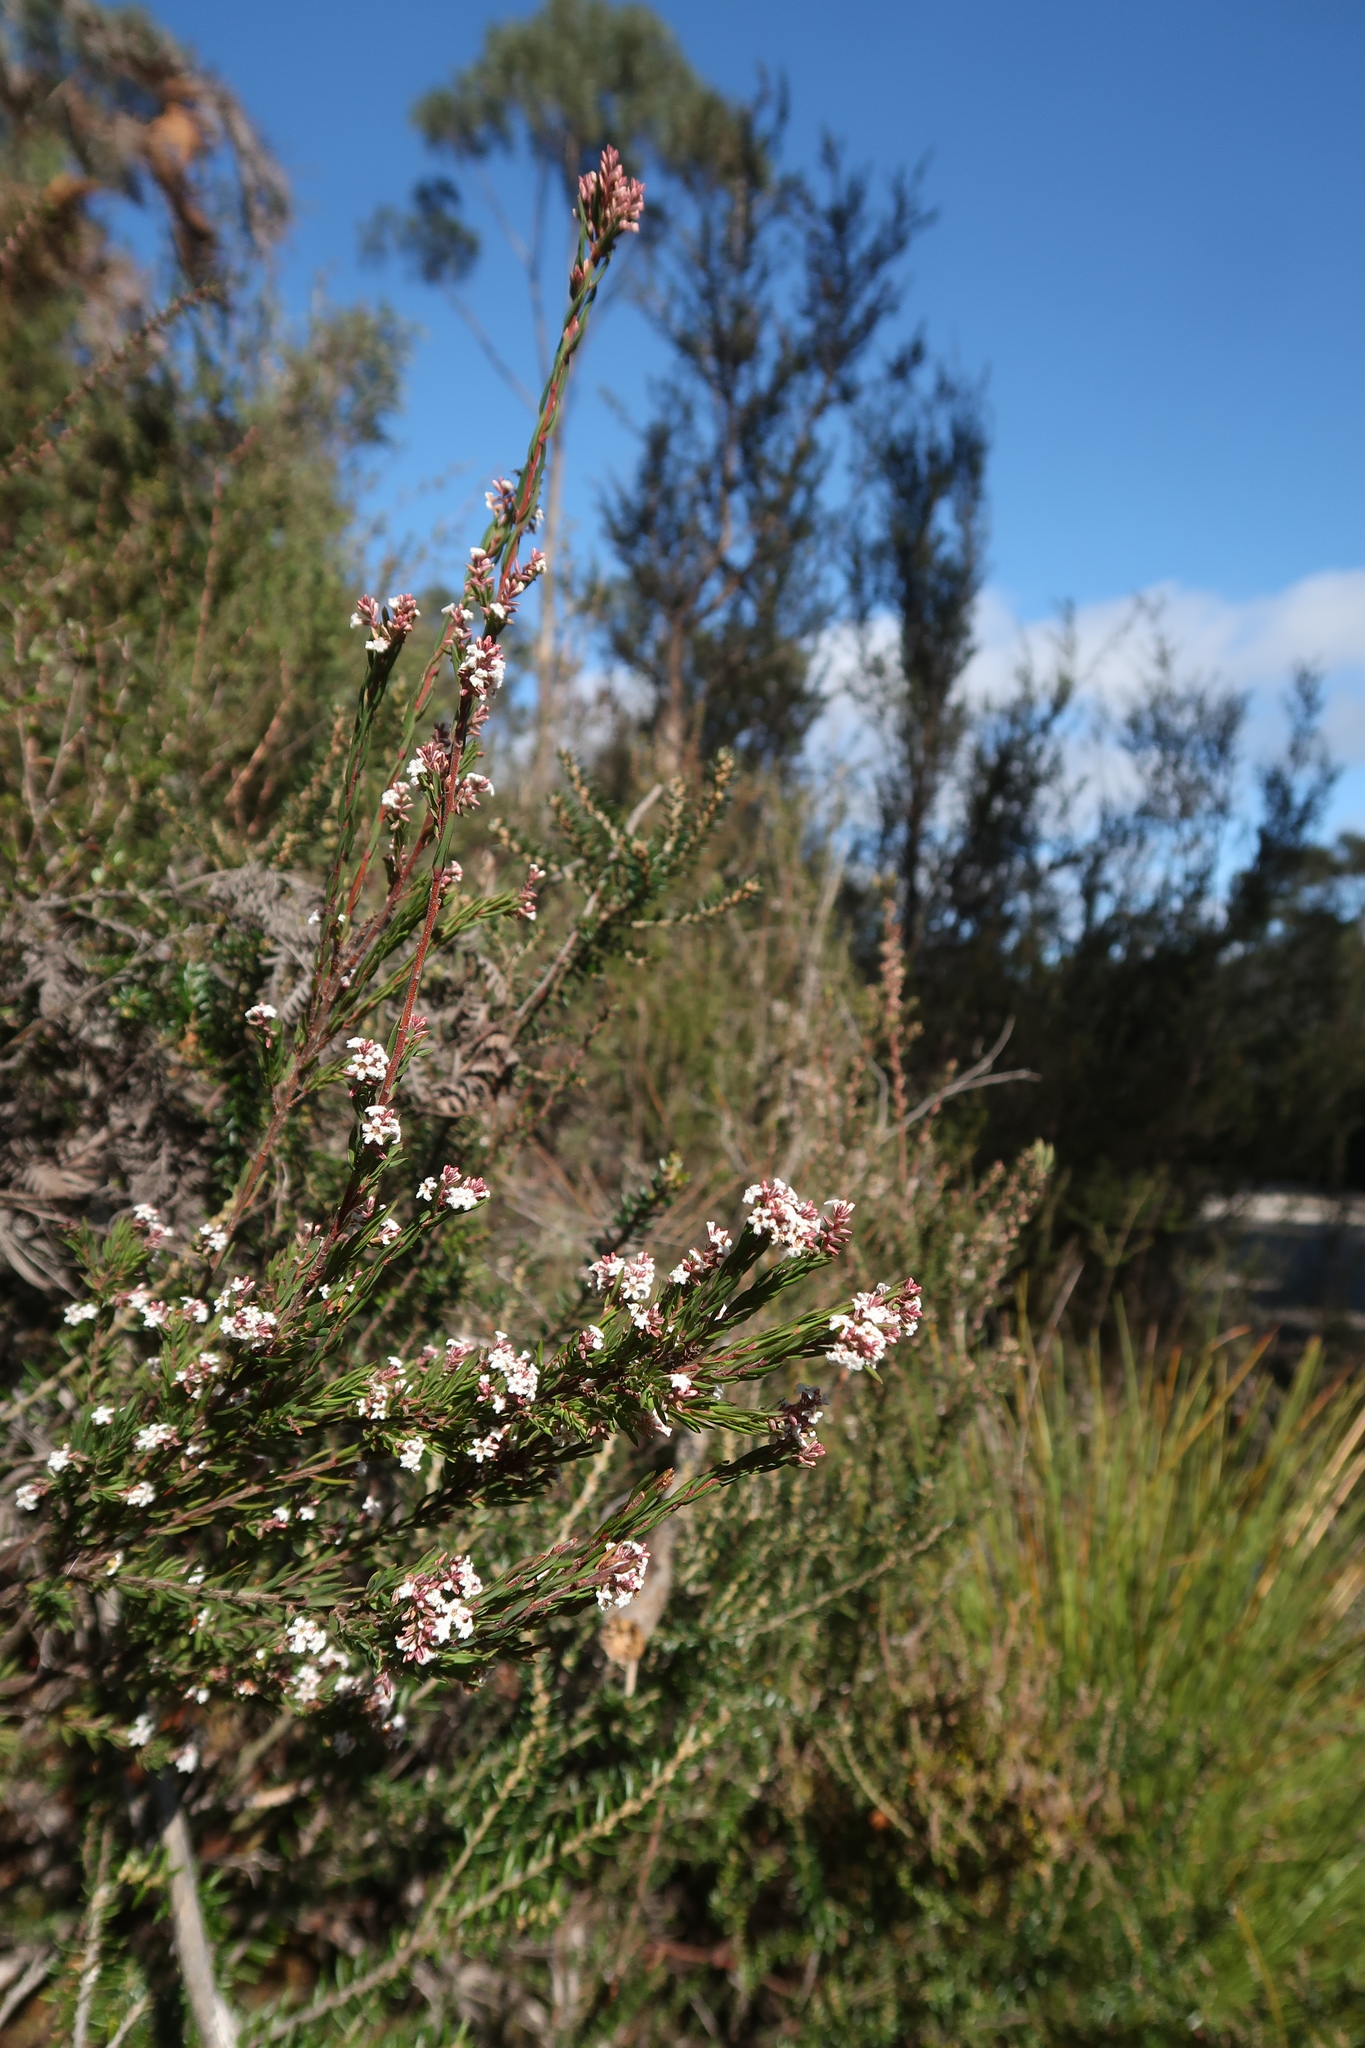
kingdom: Plantae
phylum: Tracheophyta
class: Magnoliopsida
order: Ericales
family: Ericaceae
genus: Leucopogon
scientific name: Leucopogon collinus
